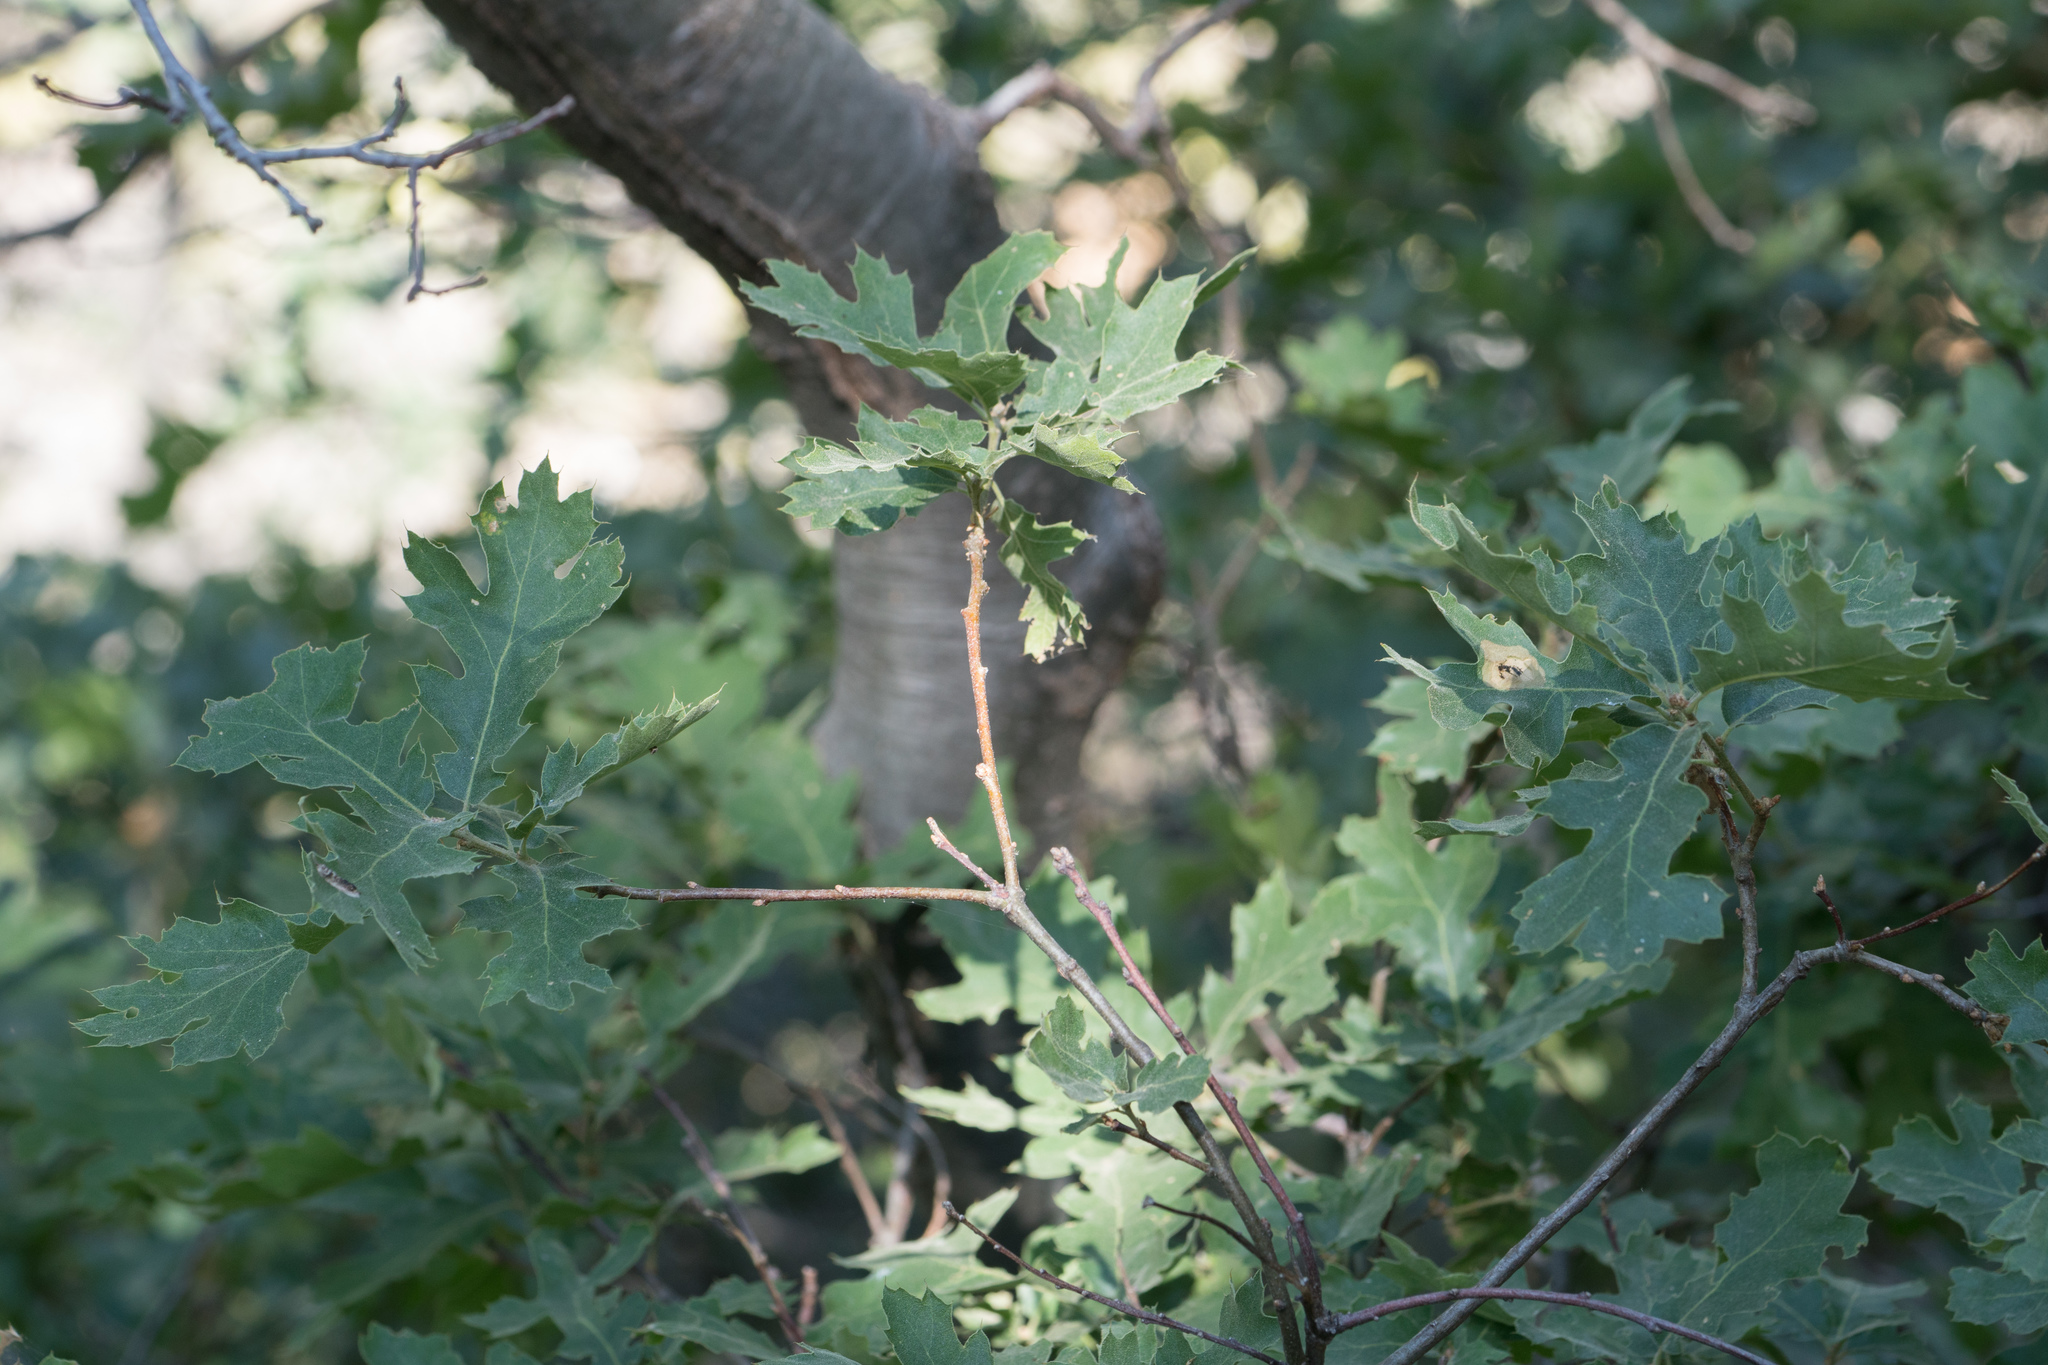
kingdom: Plantae
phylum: Tracheophyta
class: Magnoliopsida
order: Fagales
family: Fagaceae
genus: Quercus
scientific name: Quercus kelloggii
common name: California black oak
